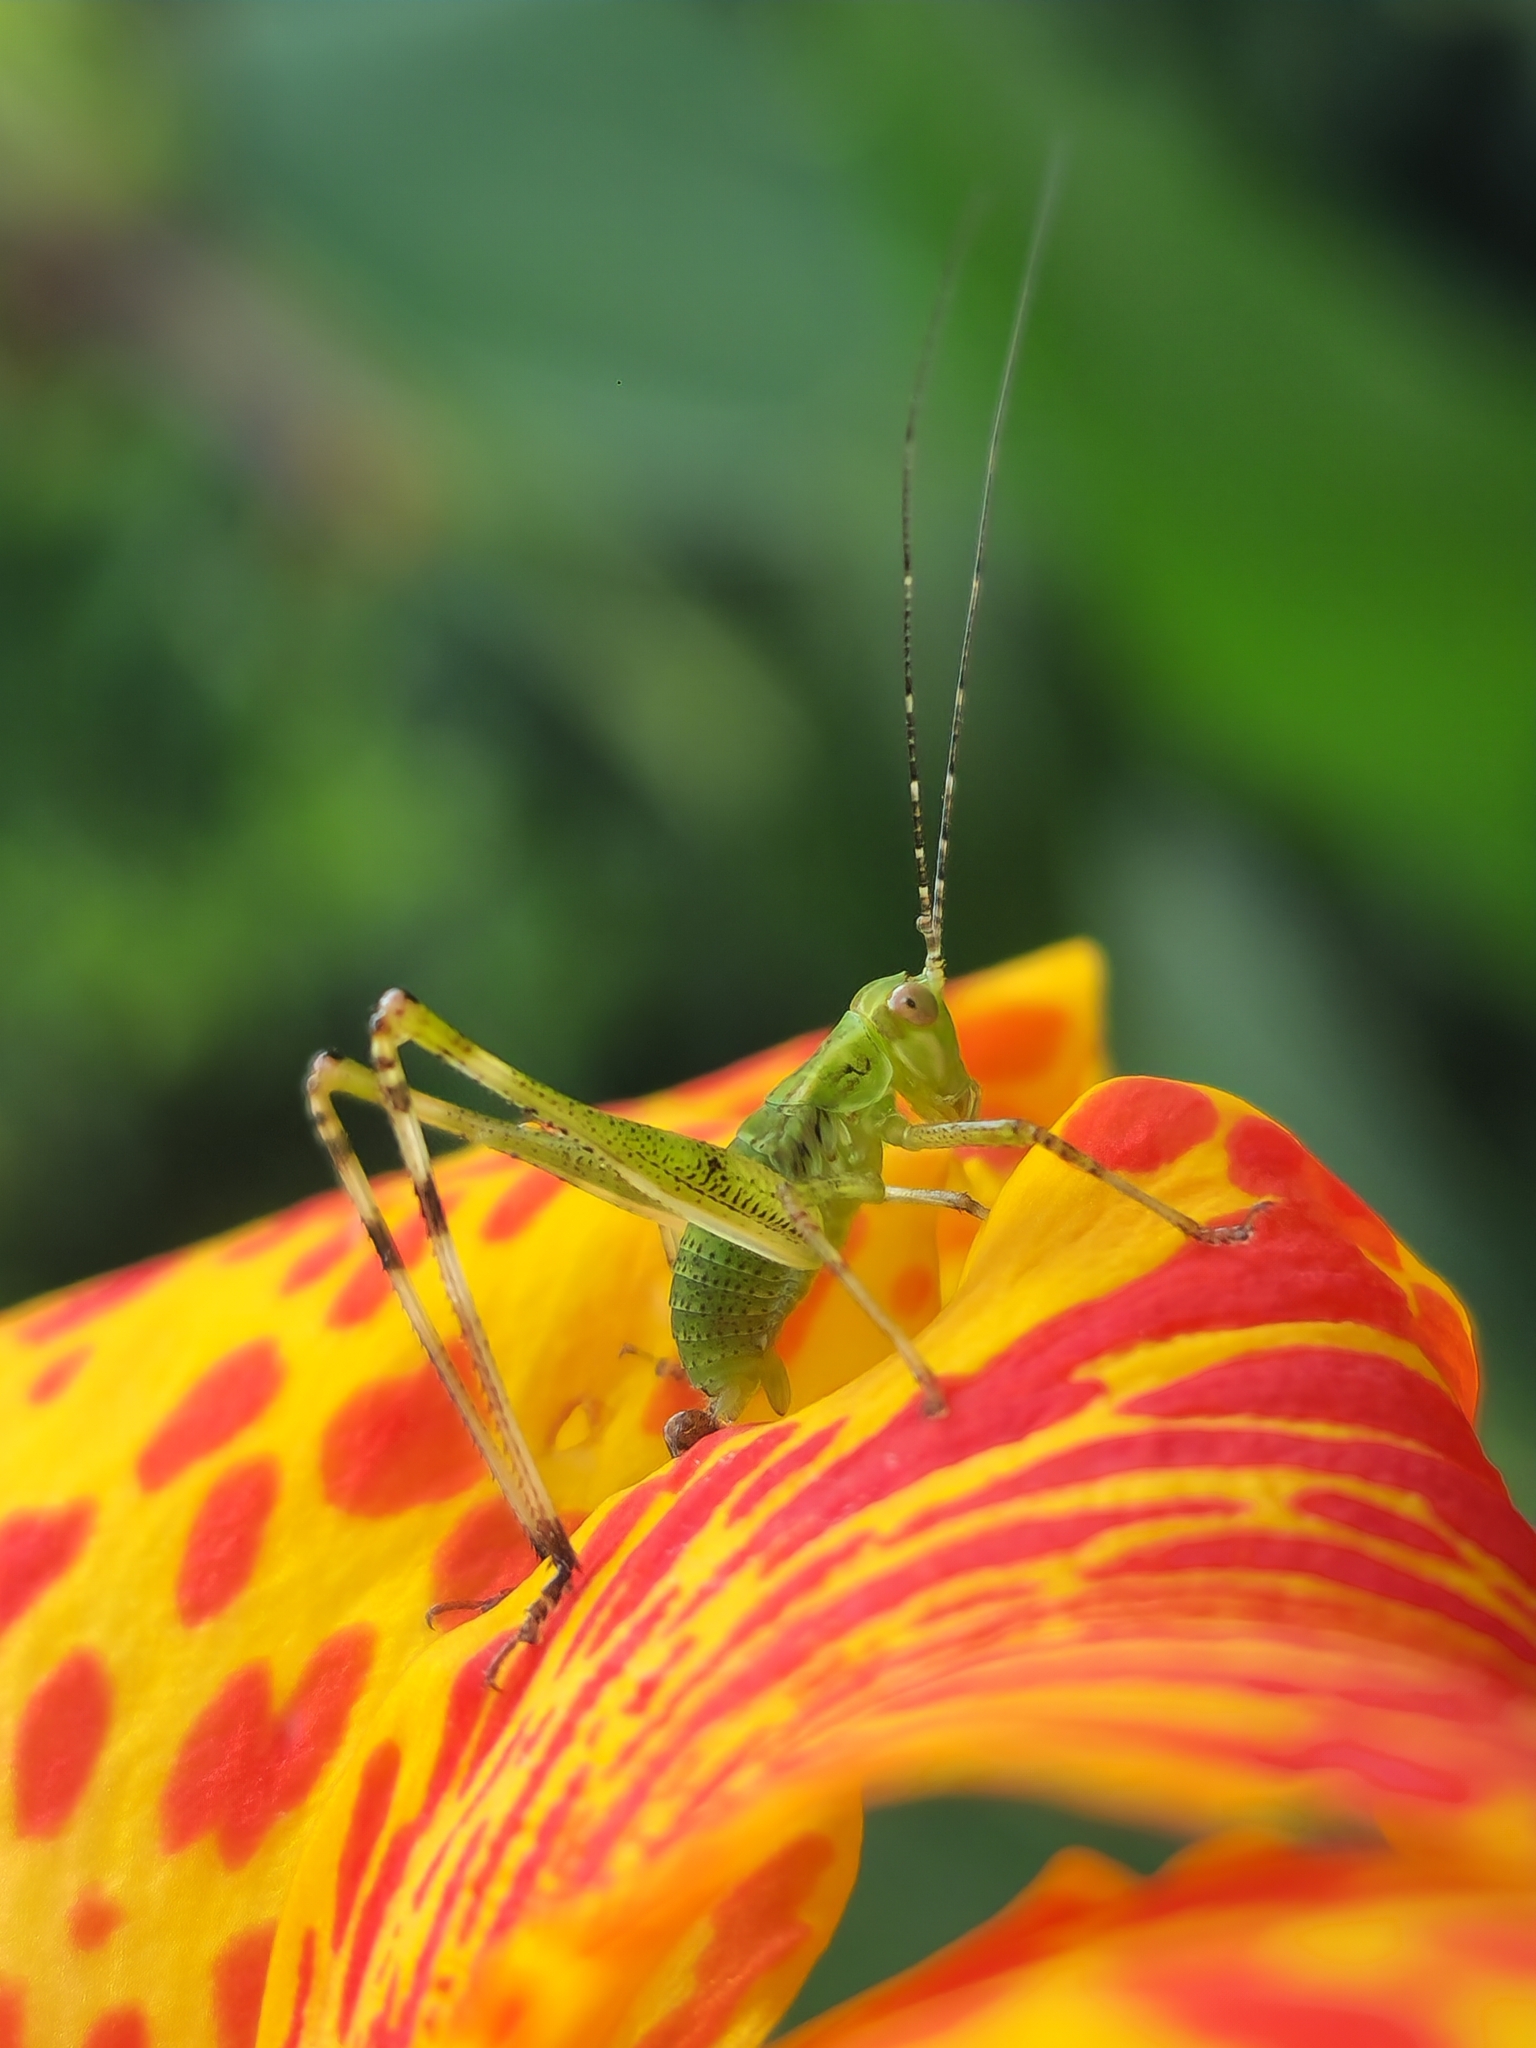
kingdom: Animalia
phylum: Arthropoda
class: Insecta
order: Orthoptera
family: Tettigoniidae
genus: Ligocatinus
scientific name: Ligocatinus spinatus
